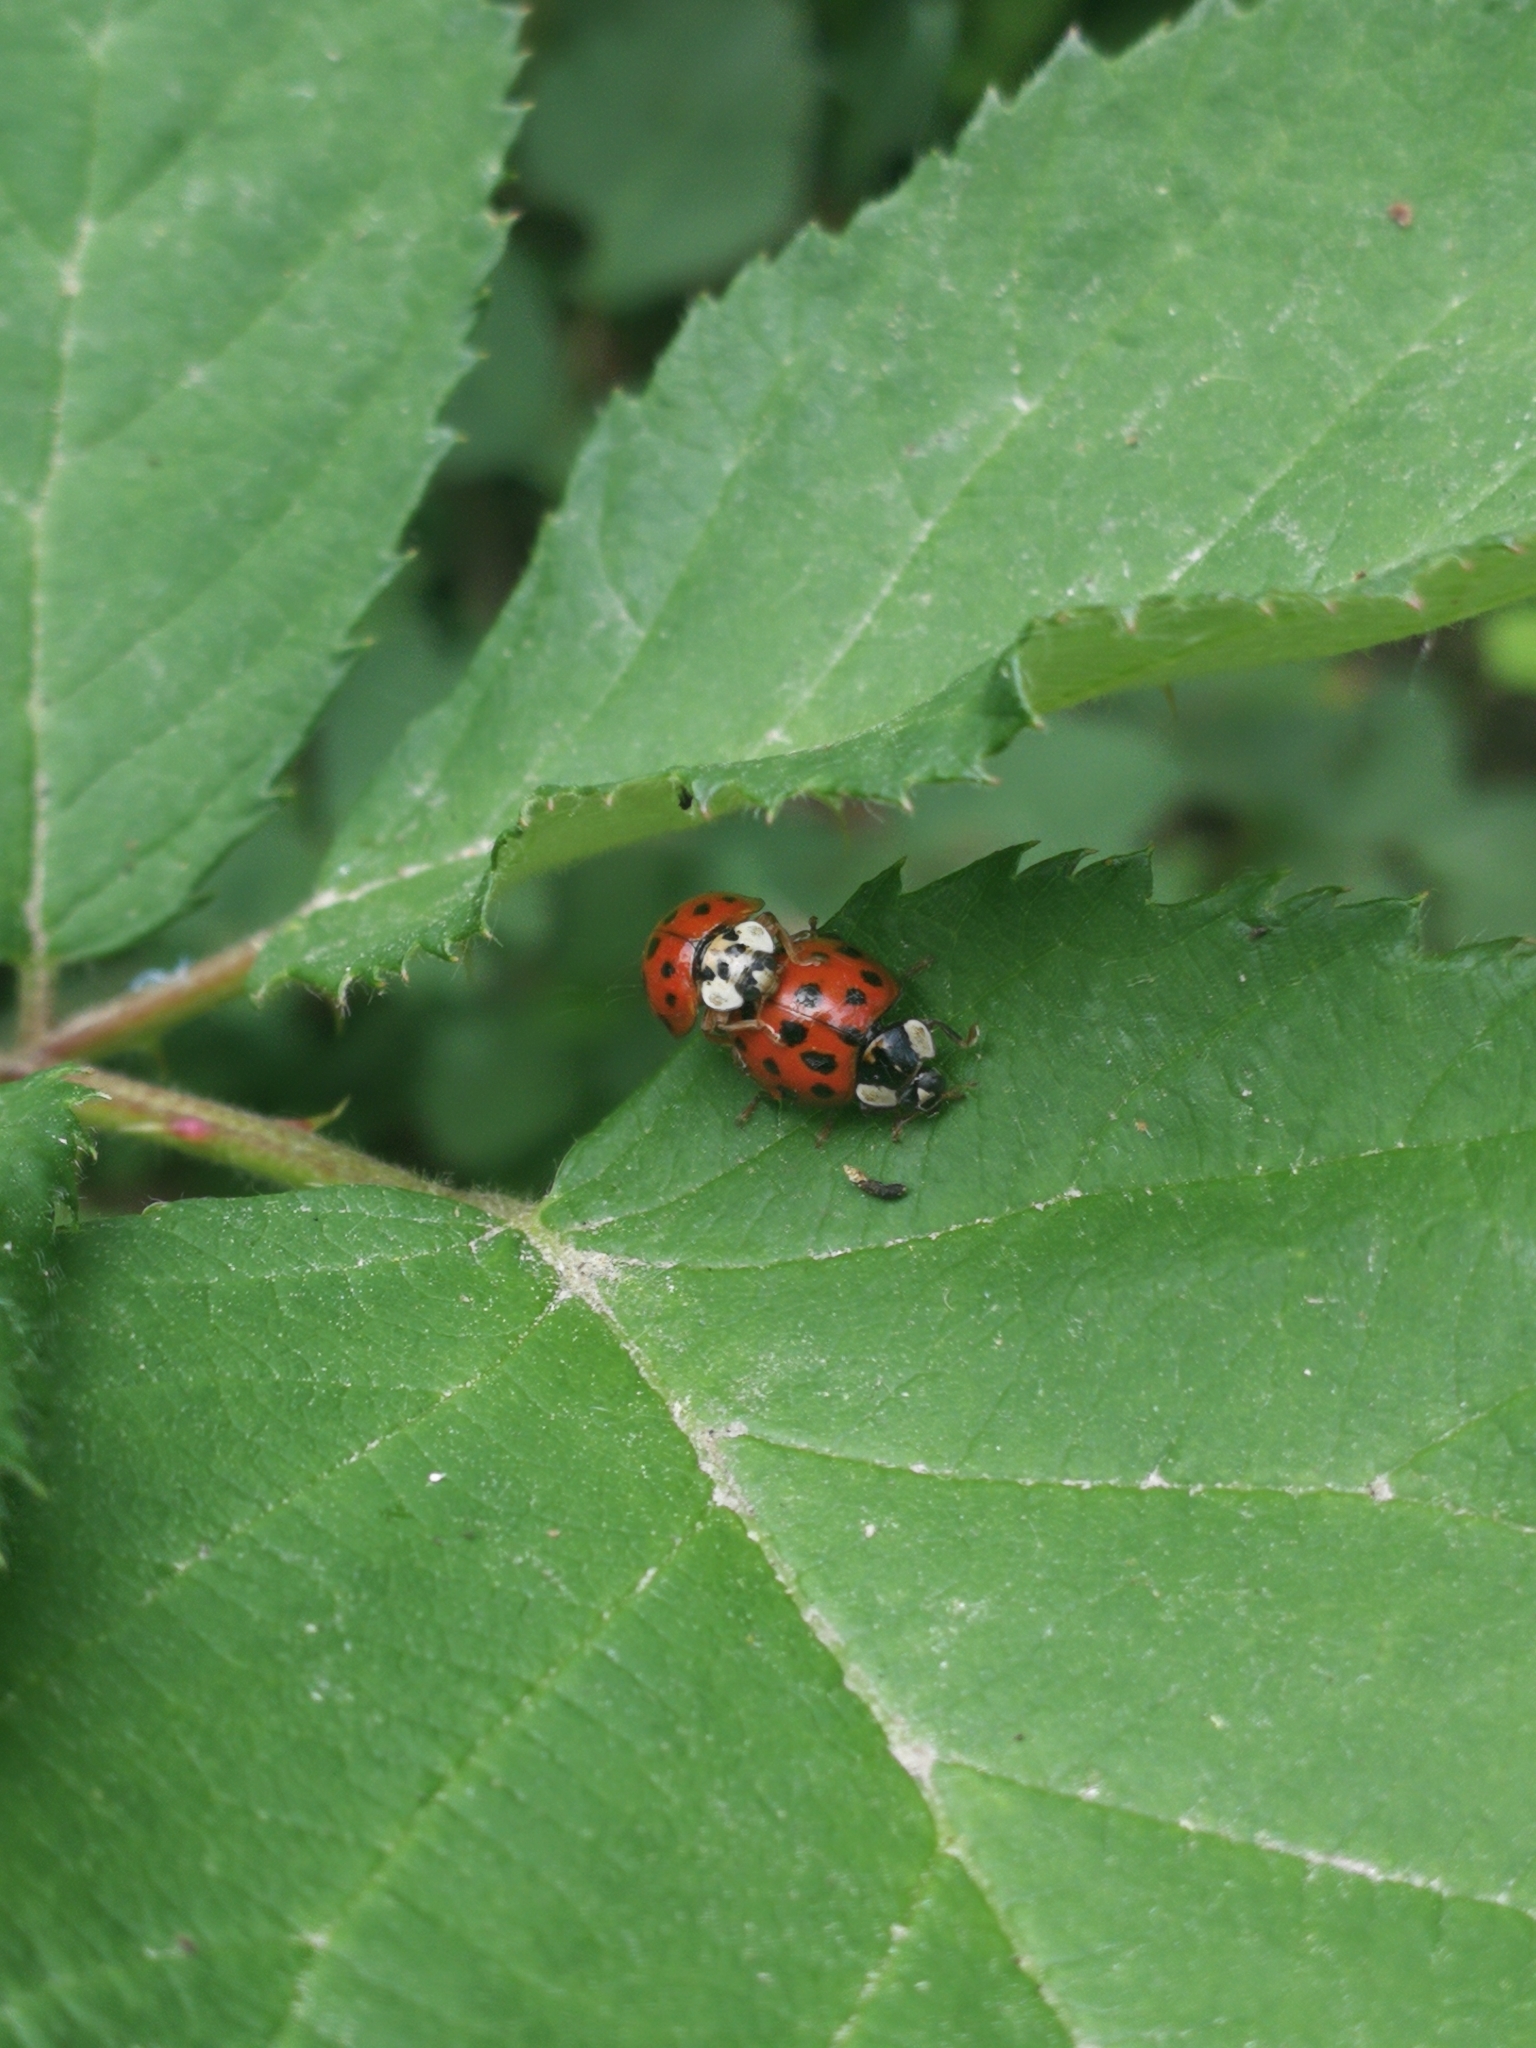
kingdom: Animalia
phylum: Arthropoda
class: Insecta
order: Coleoptera
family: Coccinellidae
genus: Harmonia
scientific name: Harmonia axyridis
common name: Harlequin ladybird
